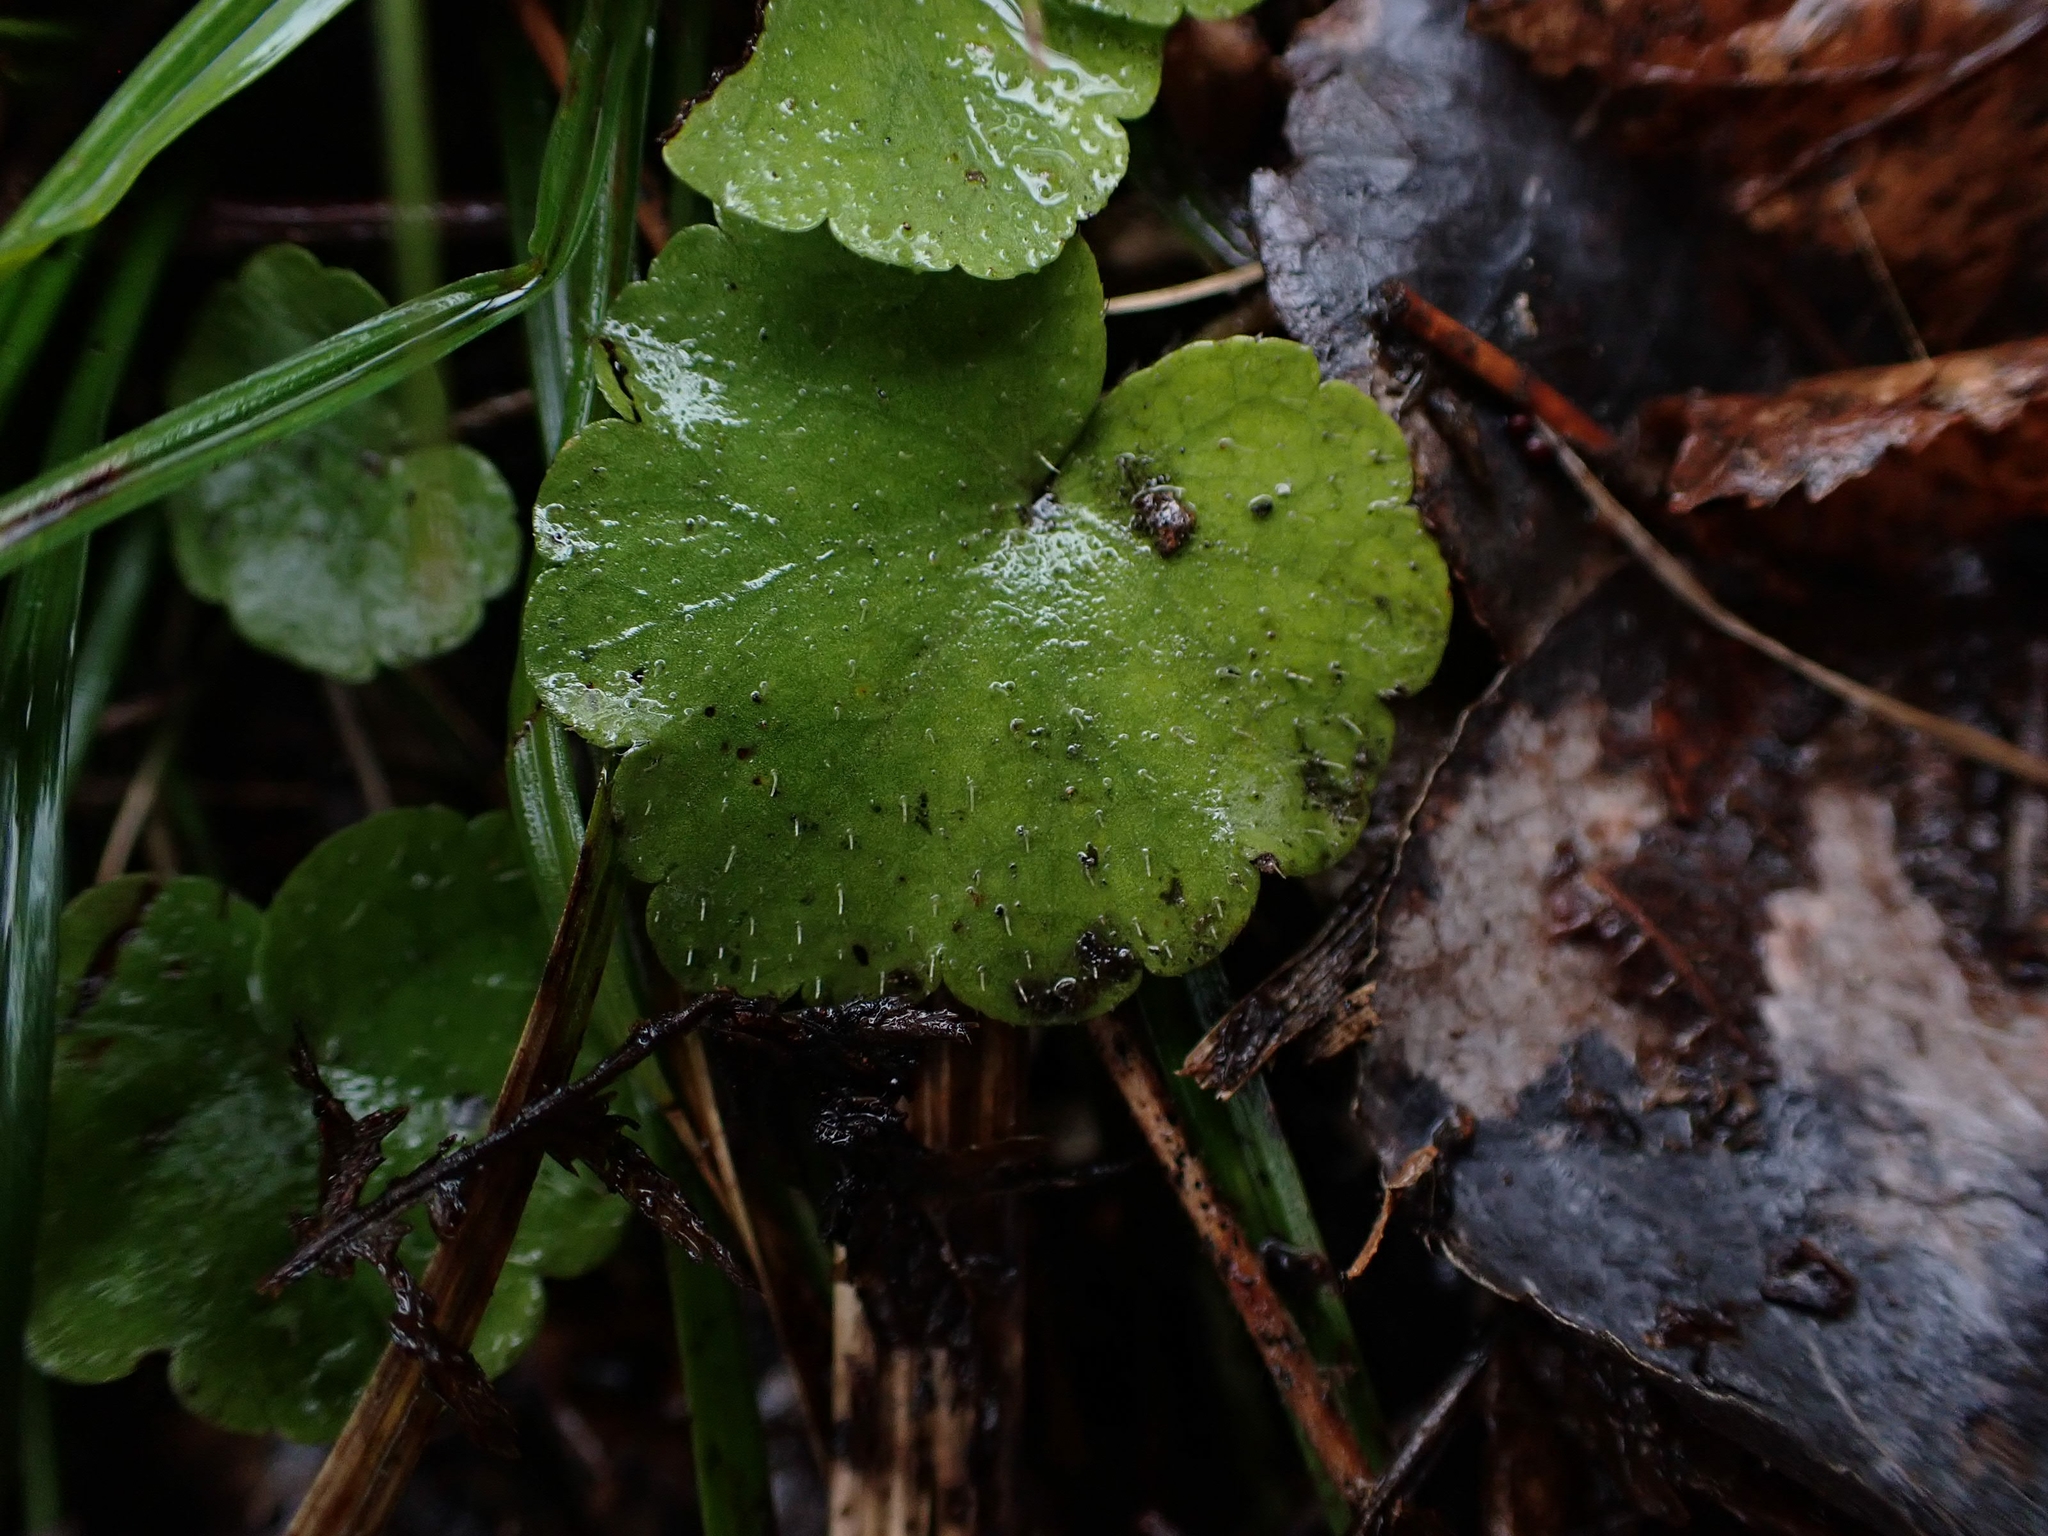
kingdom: Plantae
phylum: Tracheophyta
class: Magnoliopsida
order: Saxifragales
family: Saxifragaceae
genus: Mitella
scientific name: Mitella nuda
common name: Bare-stemmed bishop's-cap
